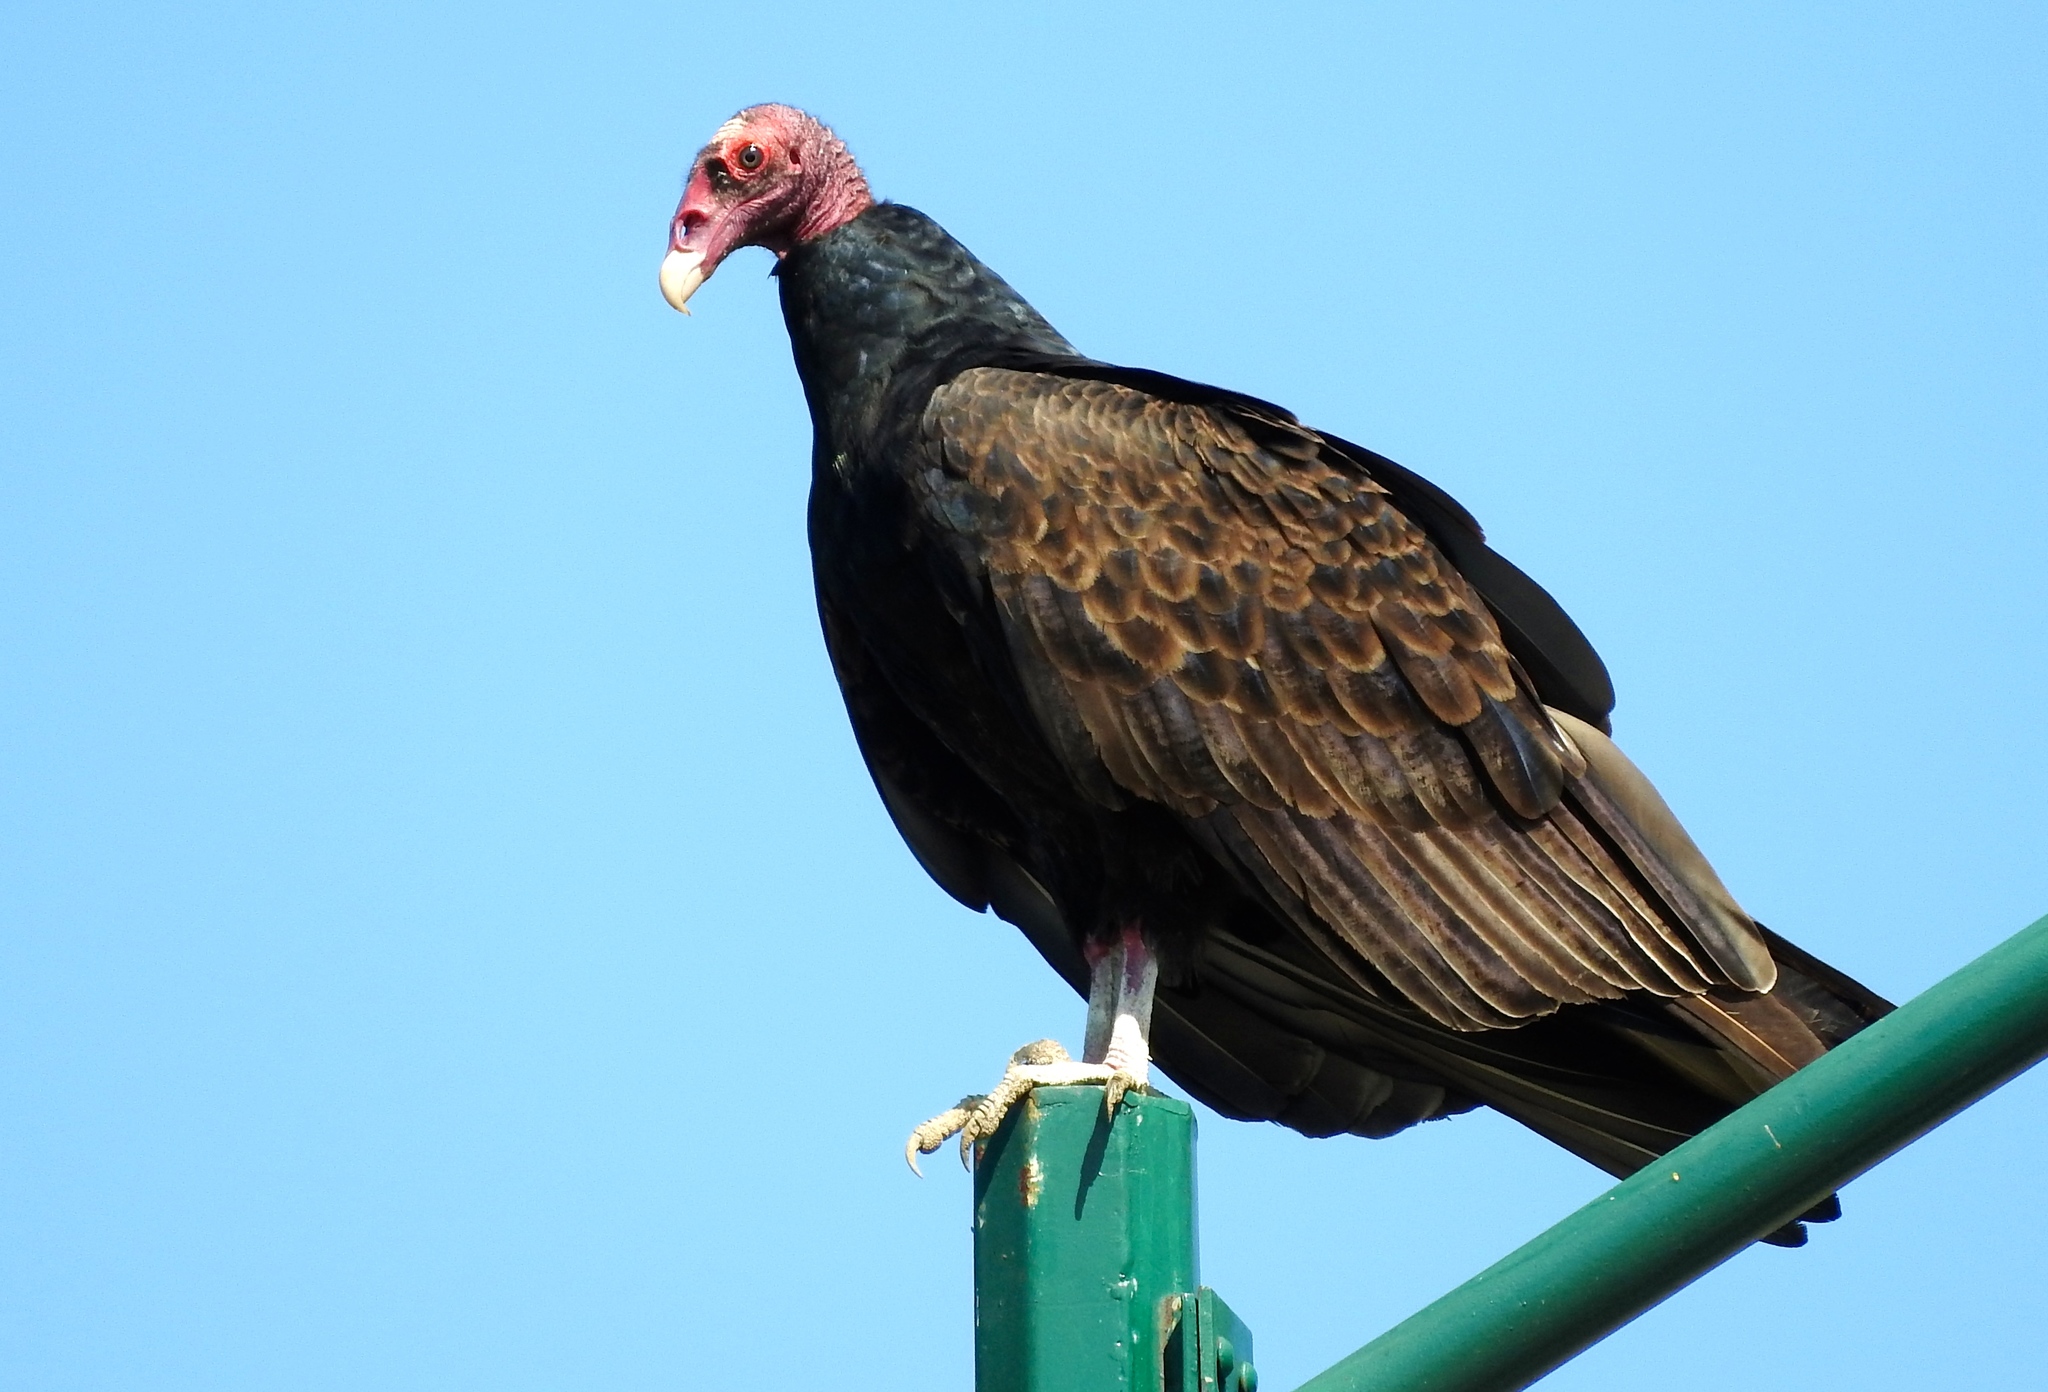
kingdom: Animalia
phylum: Chordata
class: Aves
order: Accipitriformes
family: Cathartidae
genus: Cathartes
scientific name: Cathartes aura
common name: Turkey vulture
